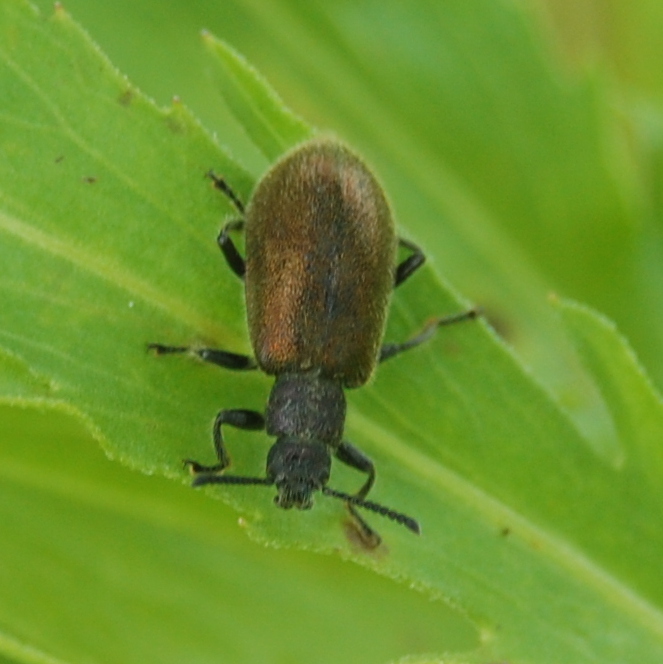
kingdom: Animalia
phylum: Arthropoda
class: Insecta
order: Coleoptera
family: Tenebrionidae
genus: Lagria
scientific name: Lagria villosa
